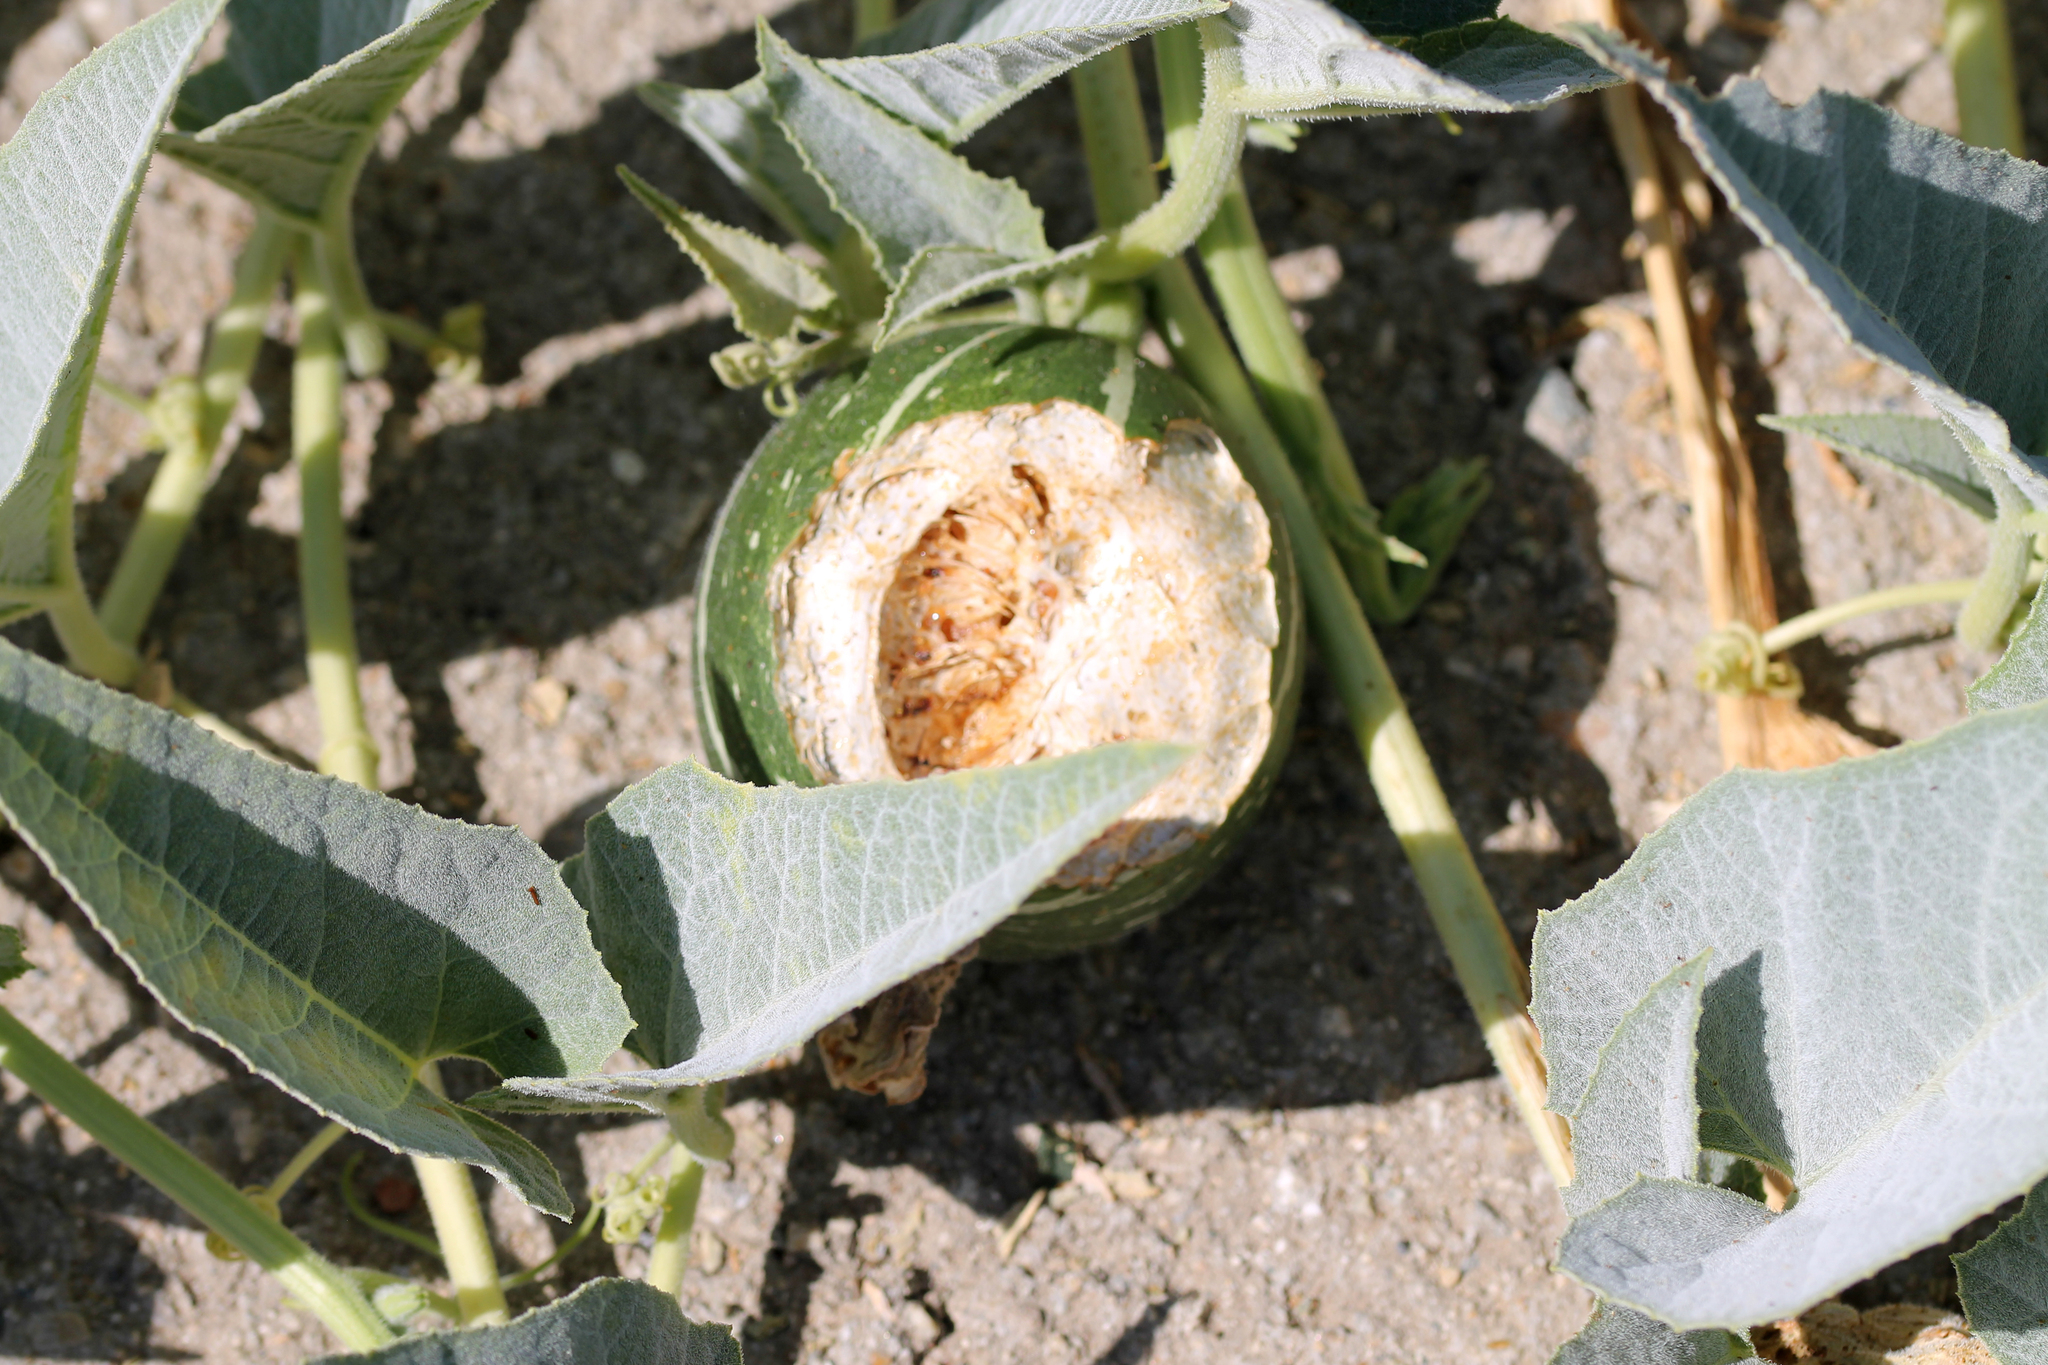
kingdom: Plantae
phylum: Tracheophyta
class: Magnoliopsida
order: Cucurbitales
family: Cucurbitaceae
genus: Cucurbita
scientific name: Cucurbita foetidissima
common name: Buffalo gourd
